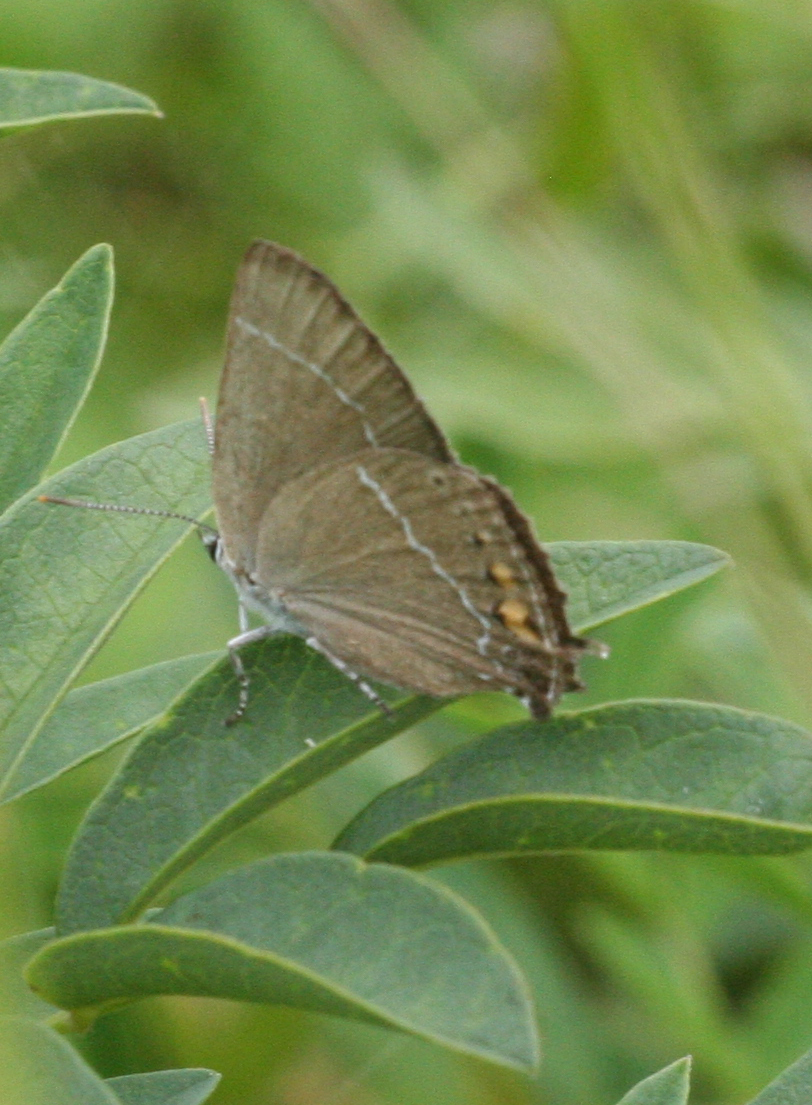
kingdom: Animalia
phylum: Arthropoda
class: Insecta
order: Lepidoptera
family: Lycaenidae
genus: Satyrium
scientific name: Satyrium
